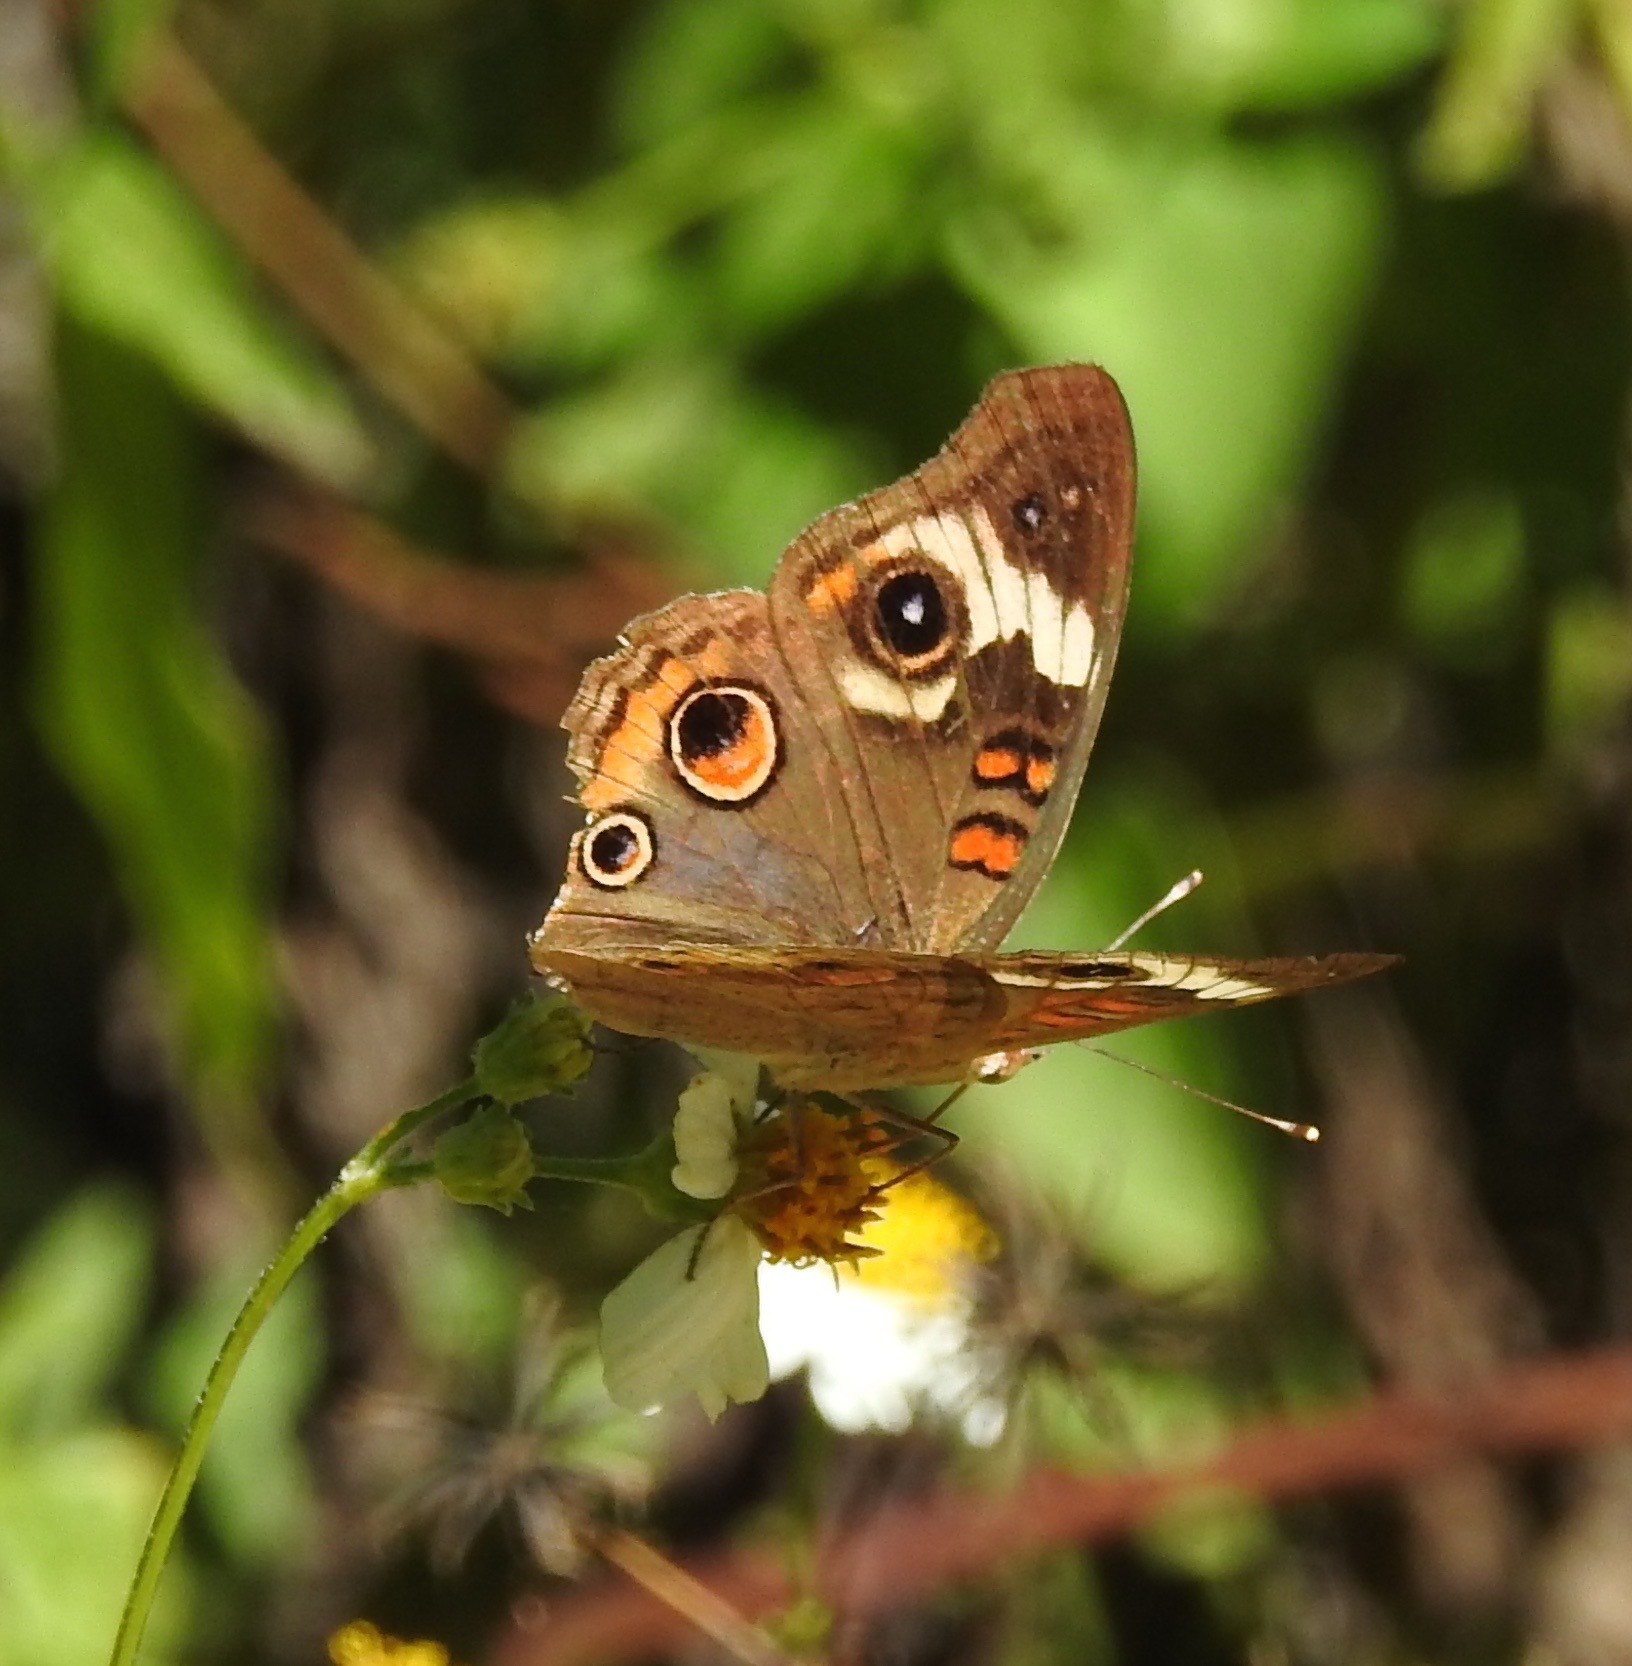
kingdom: Animalia
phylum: Arthropoda
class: Insecta
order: Lepidoptera
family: Nymphalidae
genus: Junonia
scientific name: Junonia coenia
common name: Common buckeye
